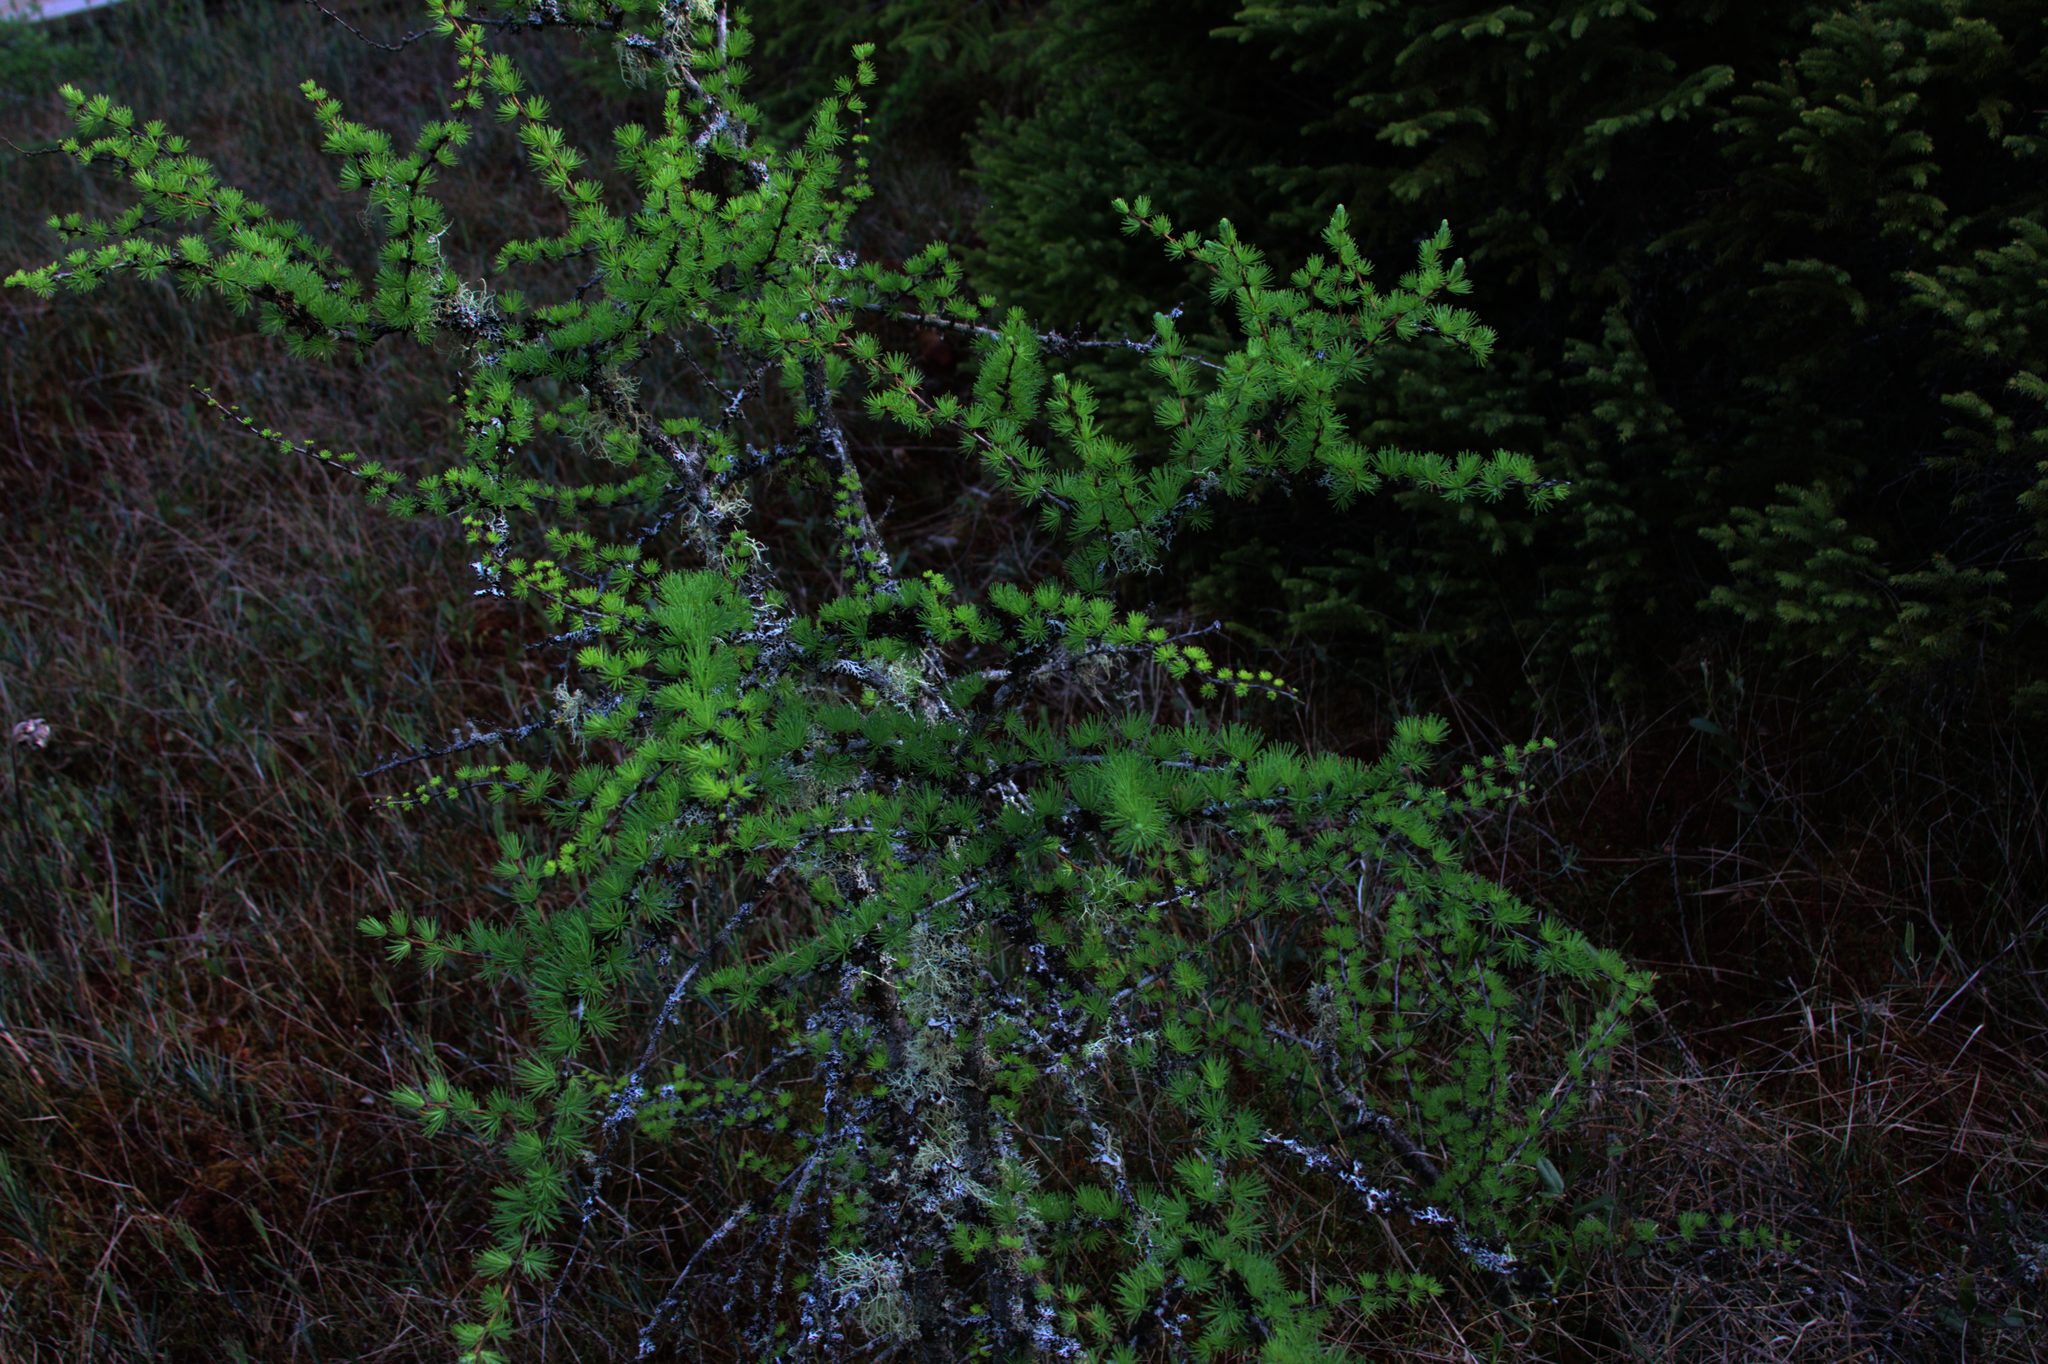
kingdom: Plantae
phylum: Tracheophyta
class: Pinopsida
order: Pinales
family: Pinaceae
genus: Larix
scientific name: Larix laricina
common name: American larch
